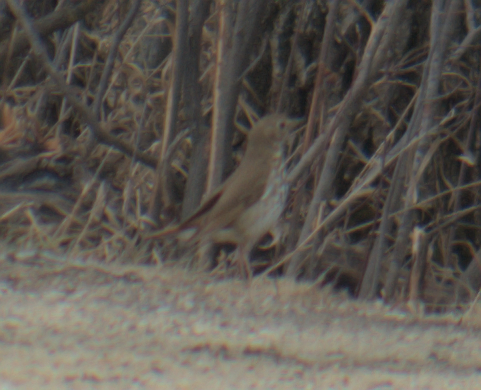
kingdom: Animalia
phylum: Chordata
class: Aves
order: Passeriformes
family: Turdidae
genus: Catharus
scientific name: Catharus guttatus
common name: Hermit thrush
